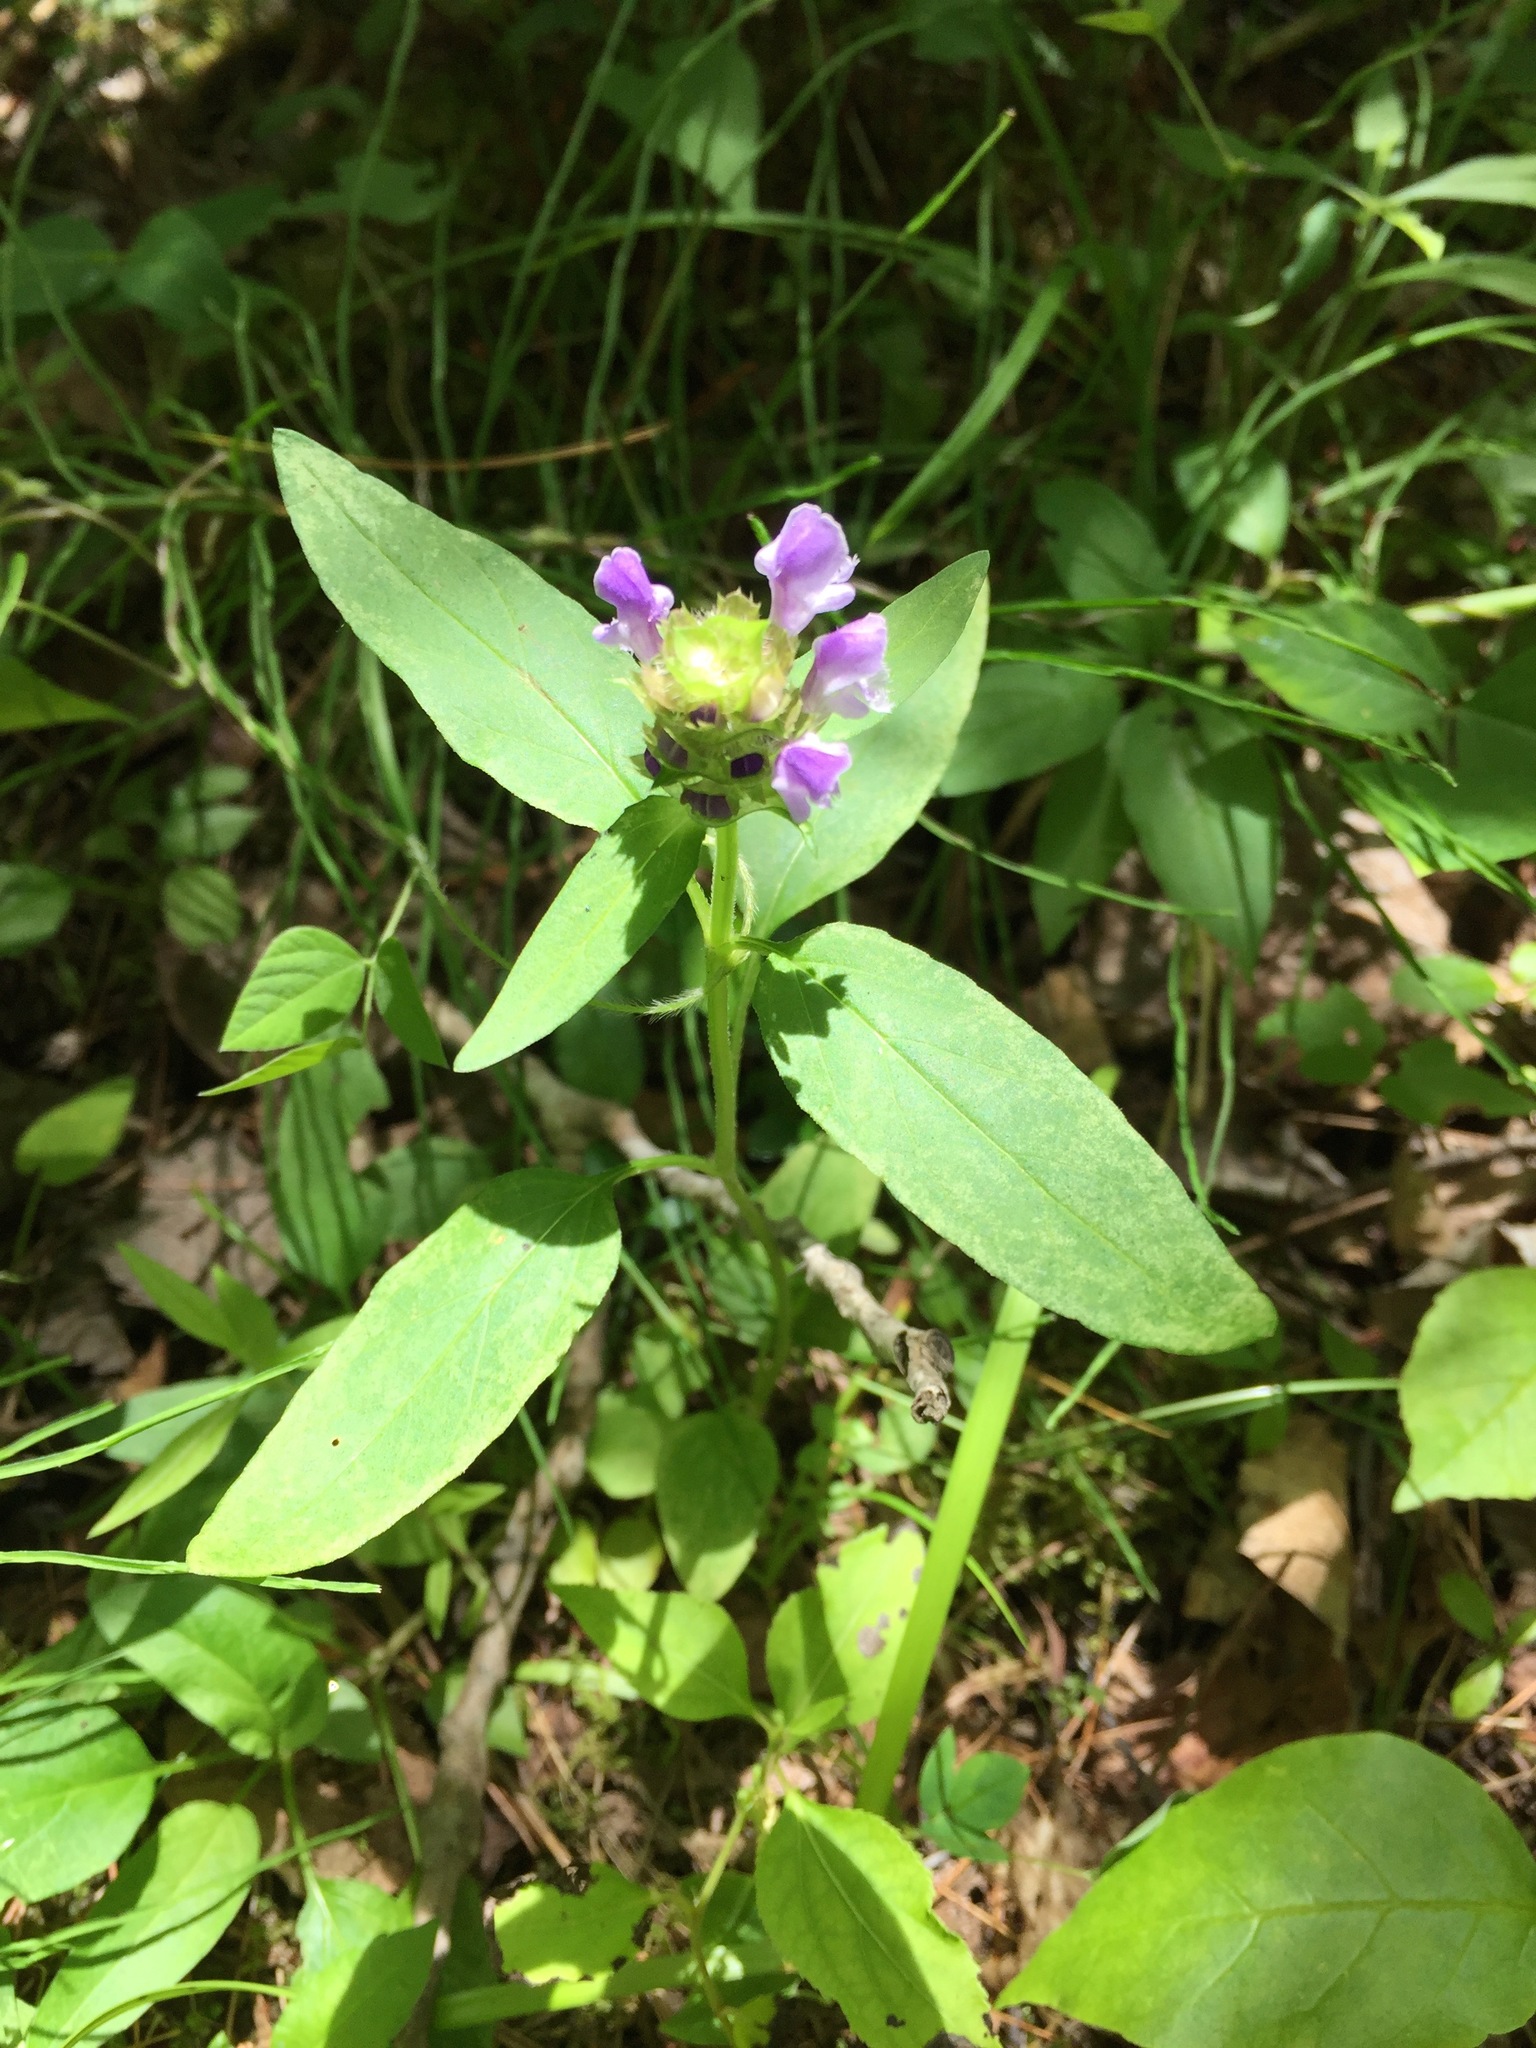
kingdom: Plantae
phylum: Tracheophyta
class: Magnoliopsida
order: Lamiales
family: Lamiaceae
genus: Prunella
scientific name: Prunella vulgaris
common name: Heal-all
